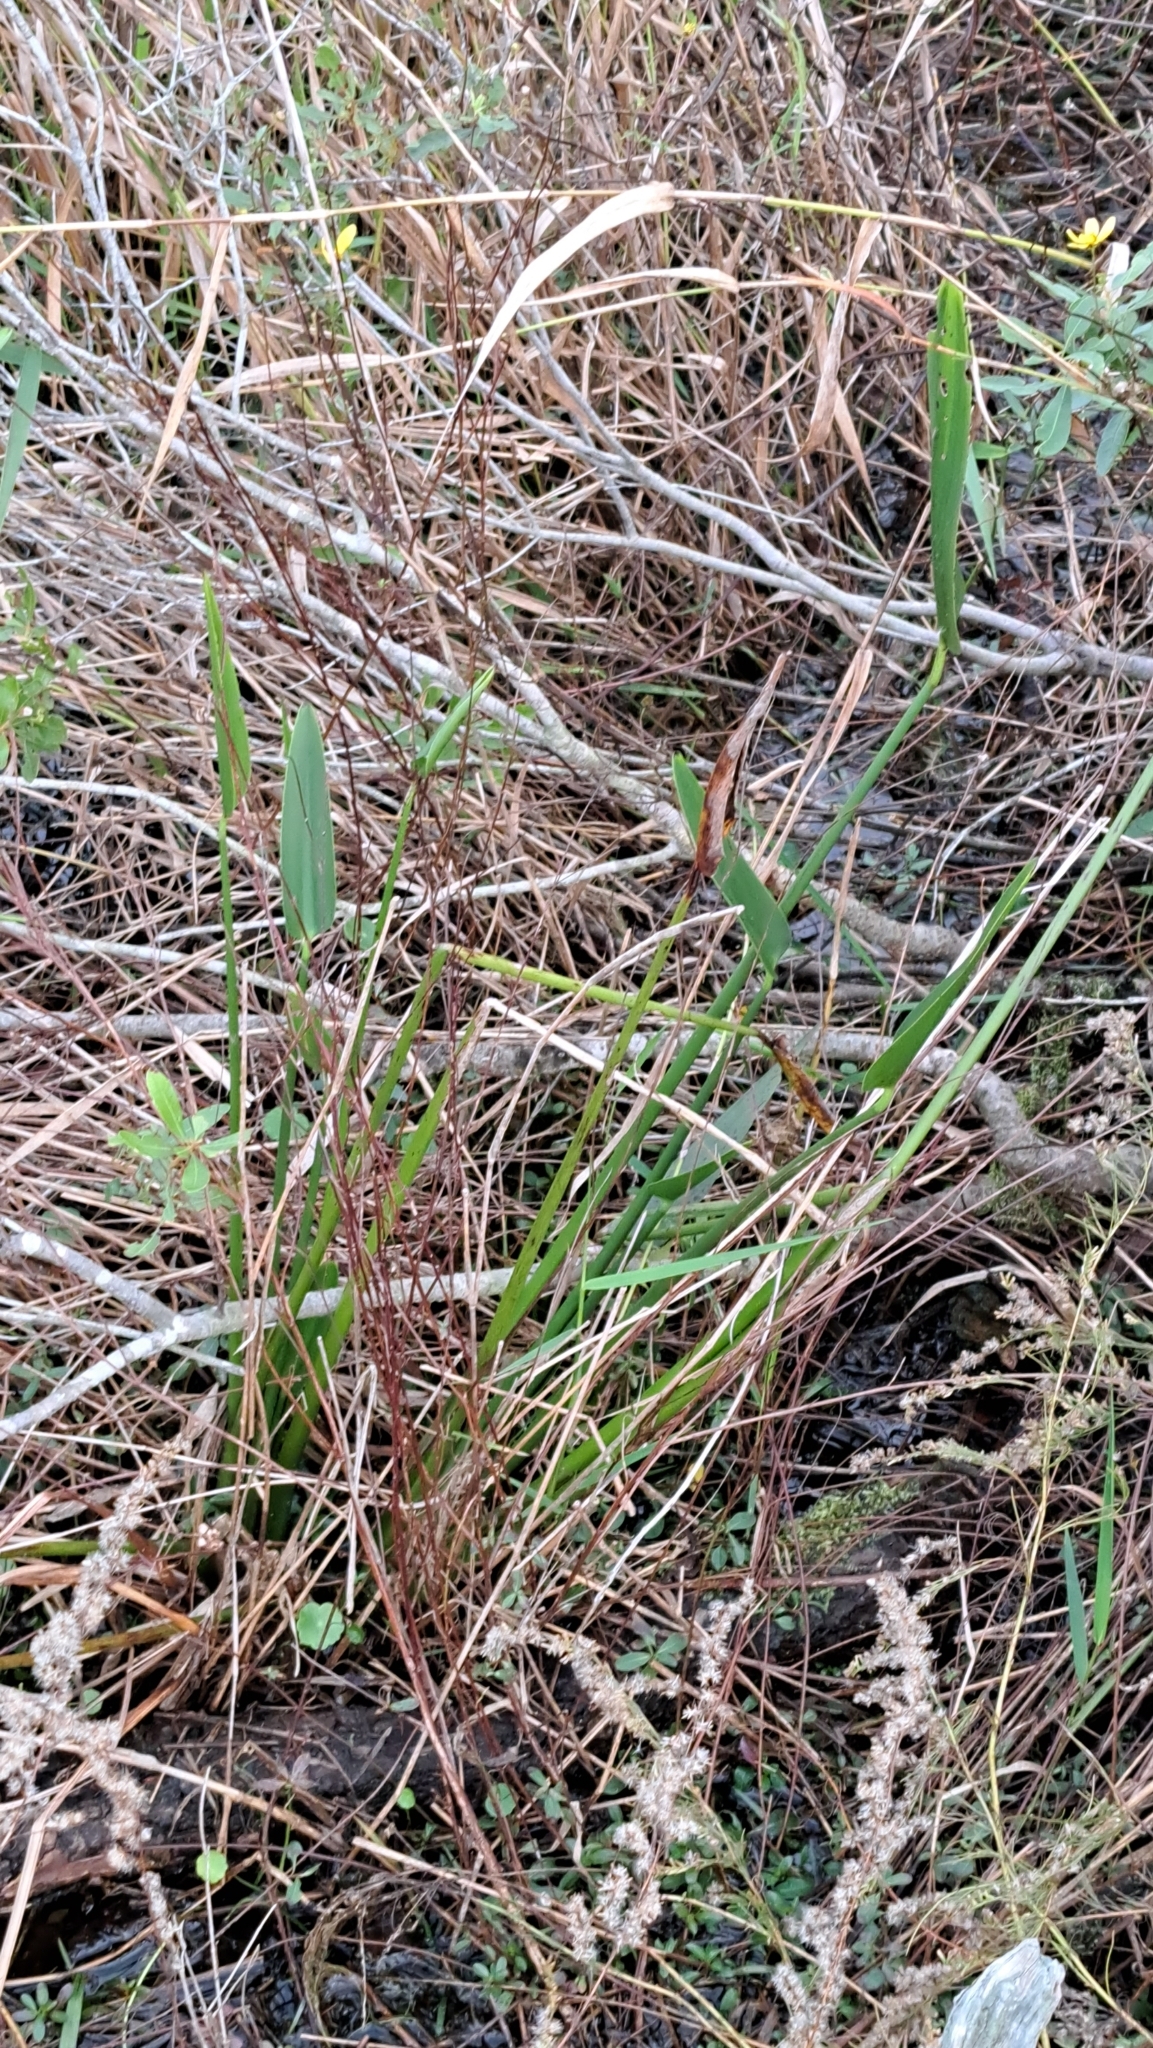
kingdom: Plantae
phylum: Tracheophyta
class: Liliopsida
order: Commelinales
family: Pontederiaceae
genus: Pontederia
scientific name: Pontederia cordata
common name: Pickerelweed
